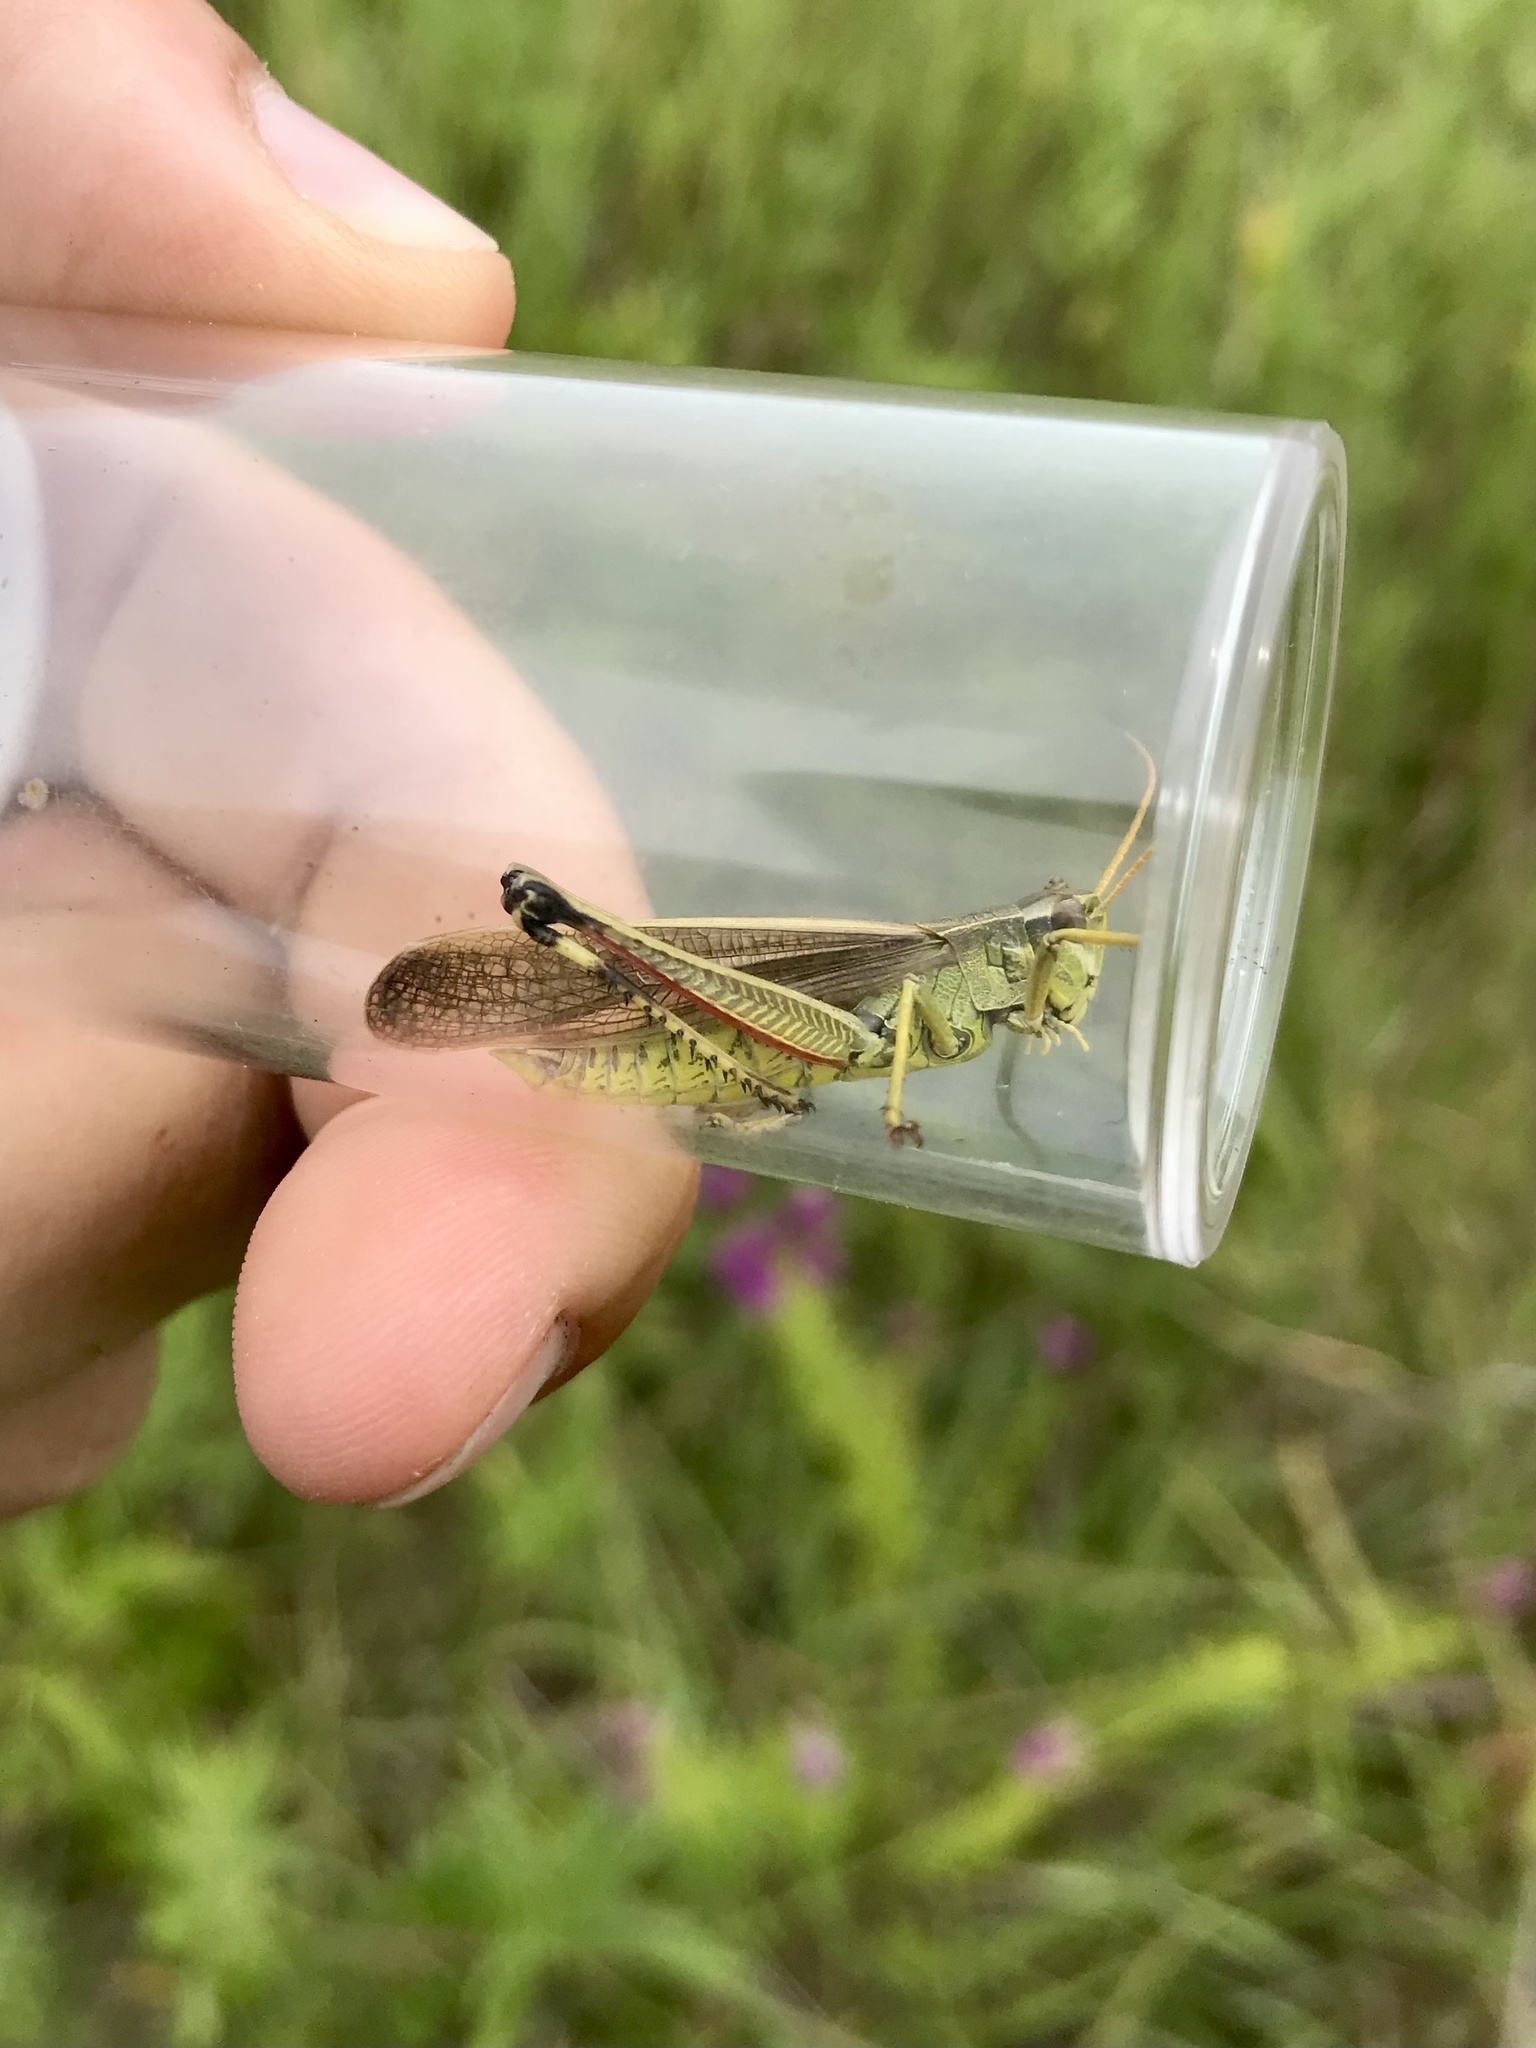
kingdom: Animalia
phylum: Arthropoda
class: Insecta
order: Orthoptera
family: Acrididae
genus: Stethophyma
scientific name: Stethophyma gracile
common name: Graceful sedge grasshopper
